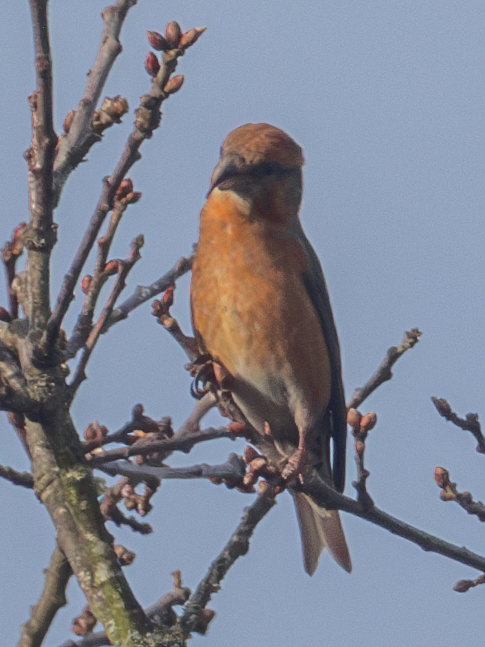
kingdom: Animalia
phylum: Chordata
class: Aves
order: Passeriformes
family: Fringillidae
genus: Loxia
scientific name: Loxia curvirostra
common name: Red crossbill
